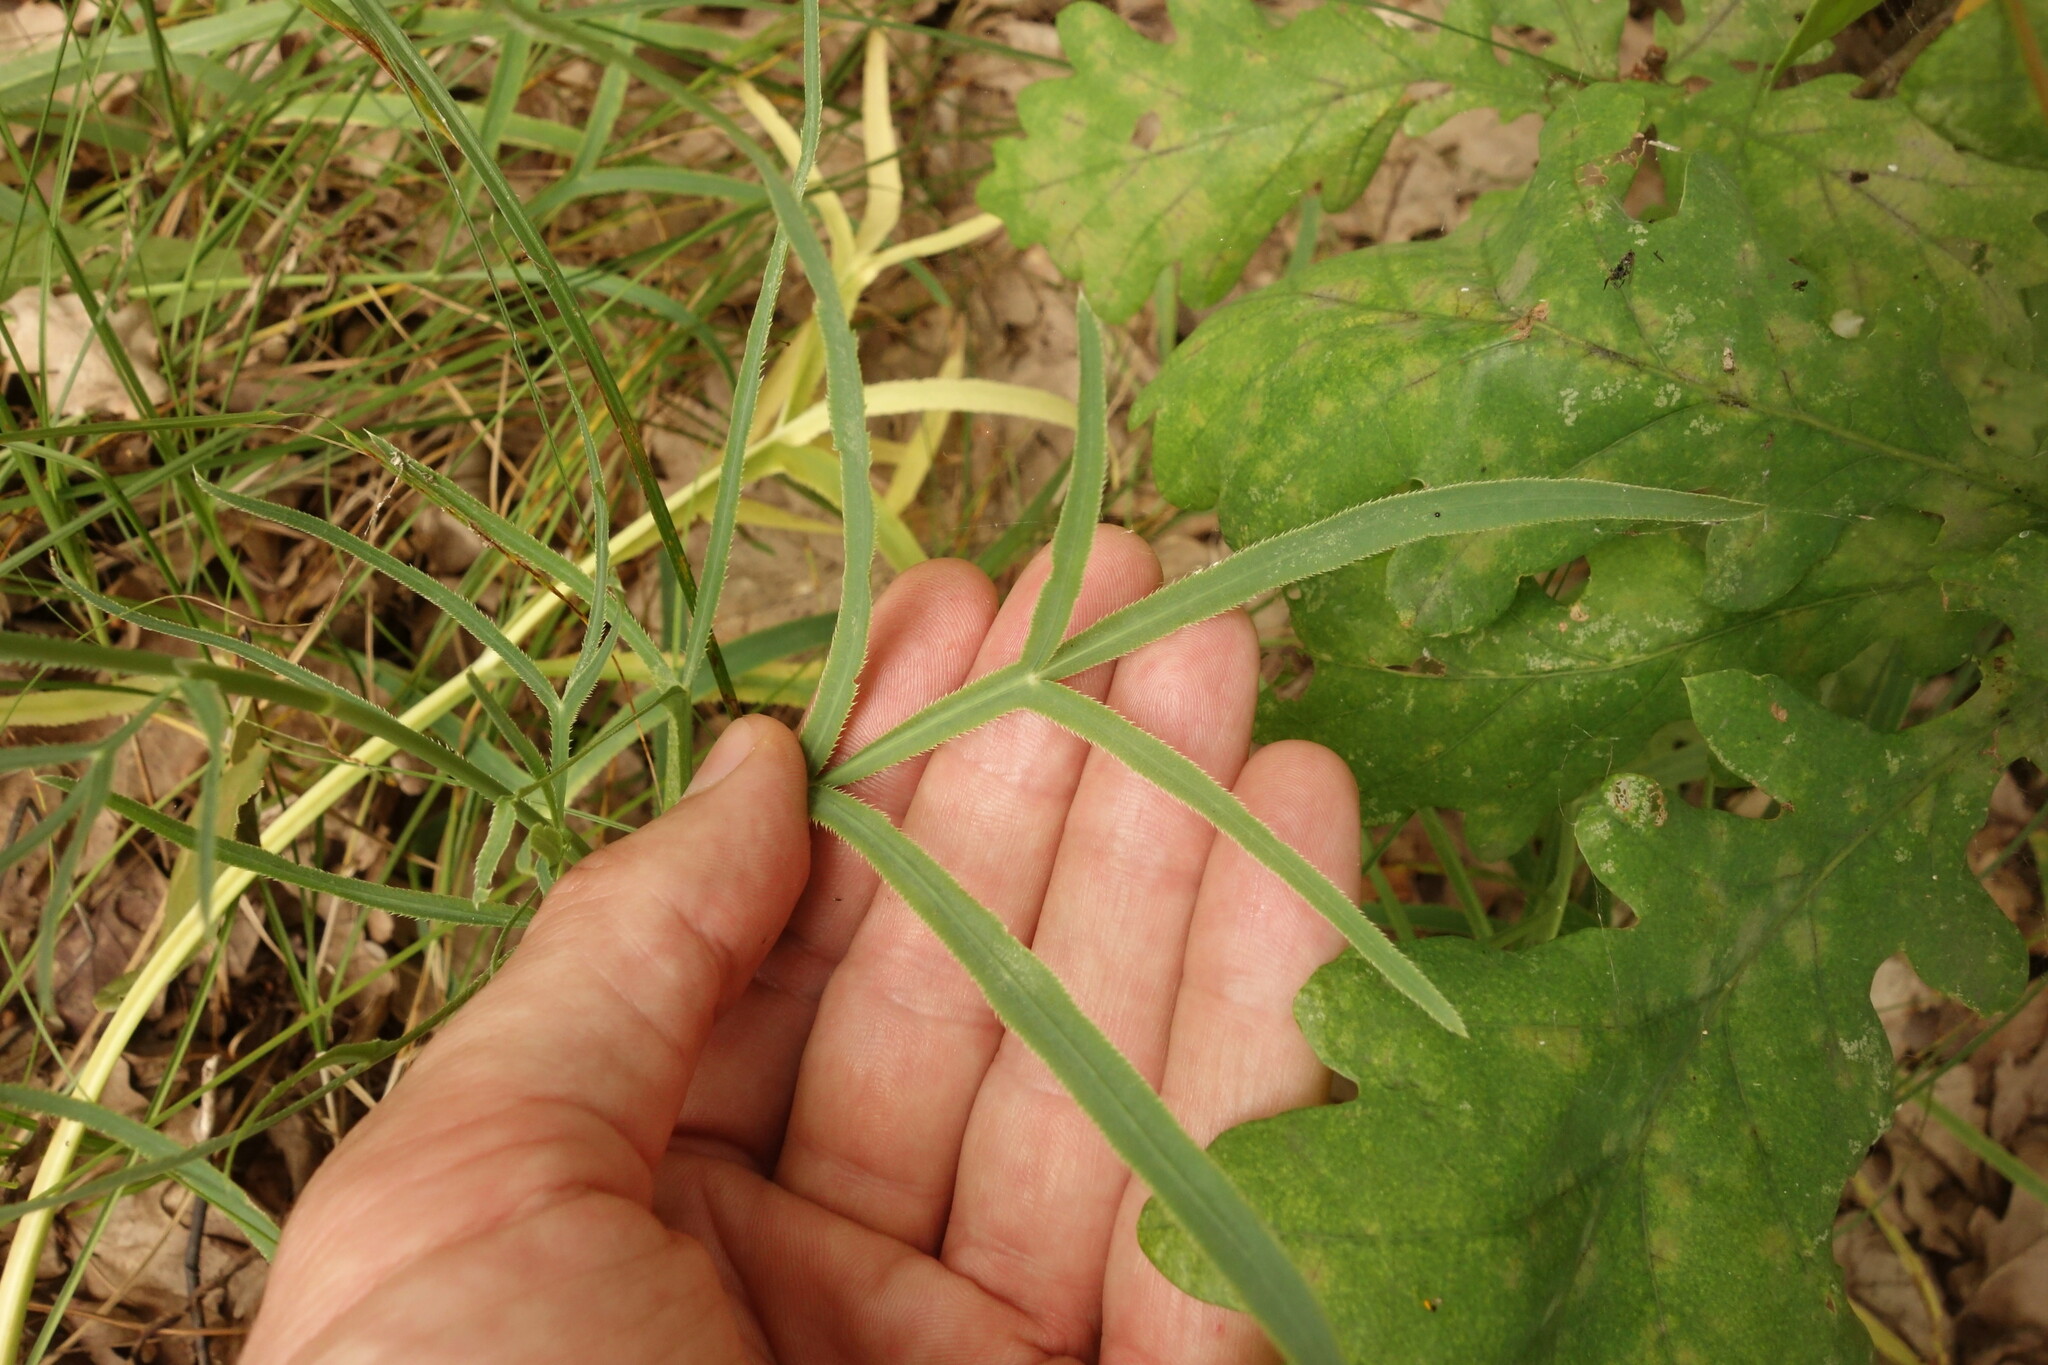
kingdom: Plantae
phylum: Tracheophyta
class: Magnoliopsida
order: Apiales
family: Apiaceae
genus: Falcaria
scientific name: Falcaria vulgaris
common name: Longleaf
